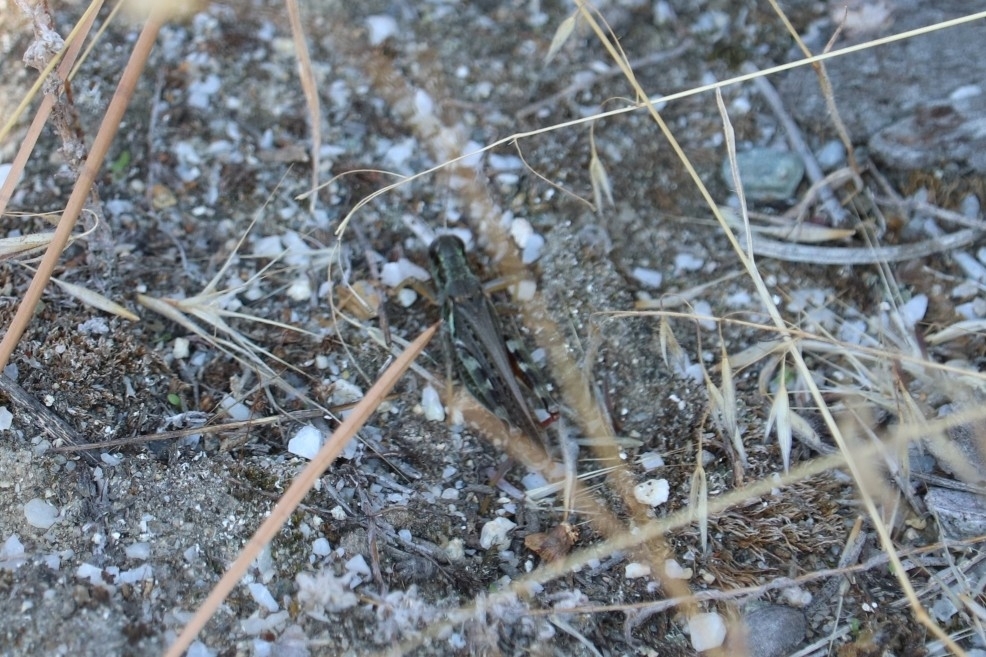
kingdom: Animalia
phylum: Arthropoda
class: Insecta
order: Orthoptera
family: Acrididae
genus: Melanoplus
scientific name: Melanoplus sanguinipes
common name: Migratory grasshopper
